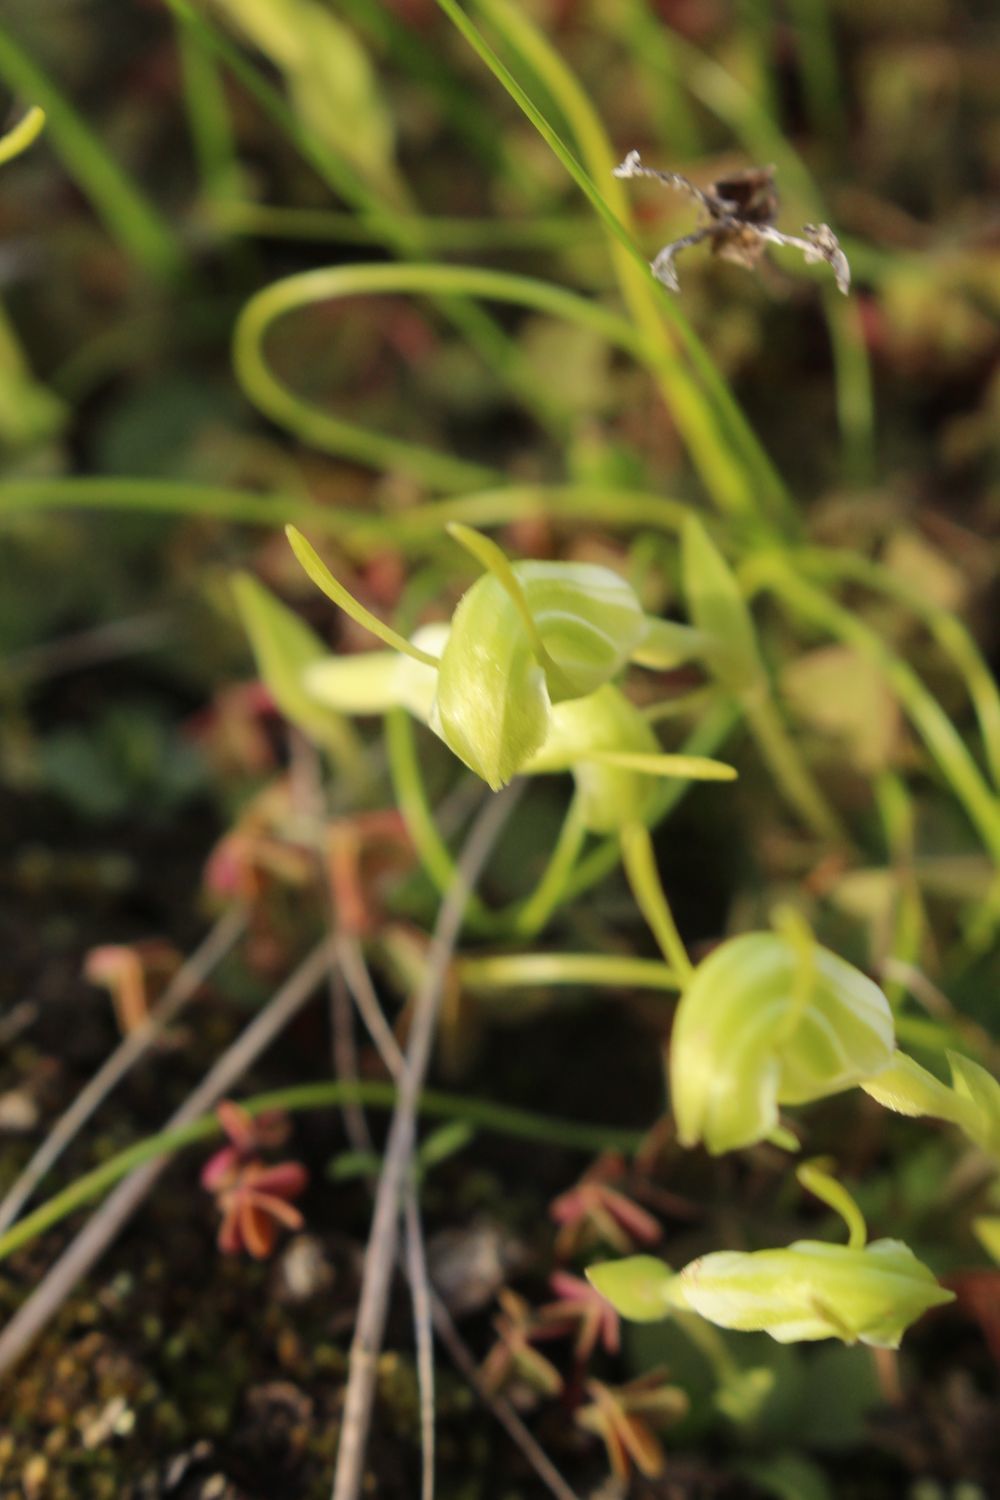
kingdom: Plantae
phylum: Tracheophyta
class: Liliopsida
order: Asparagales
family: Orchidaceae
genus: Pterostylis
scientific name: Pterostylis lortensis
